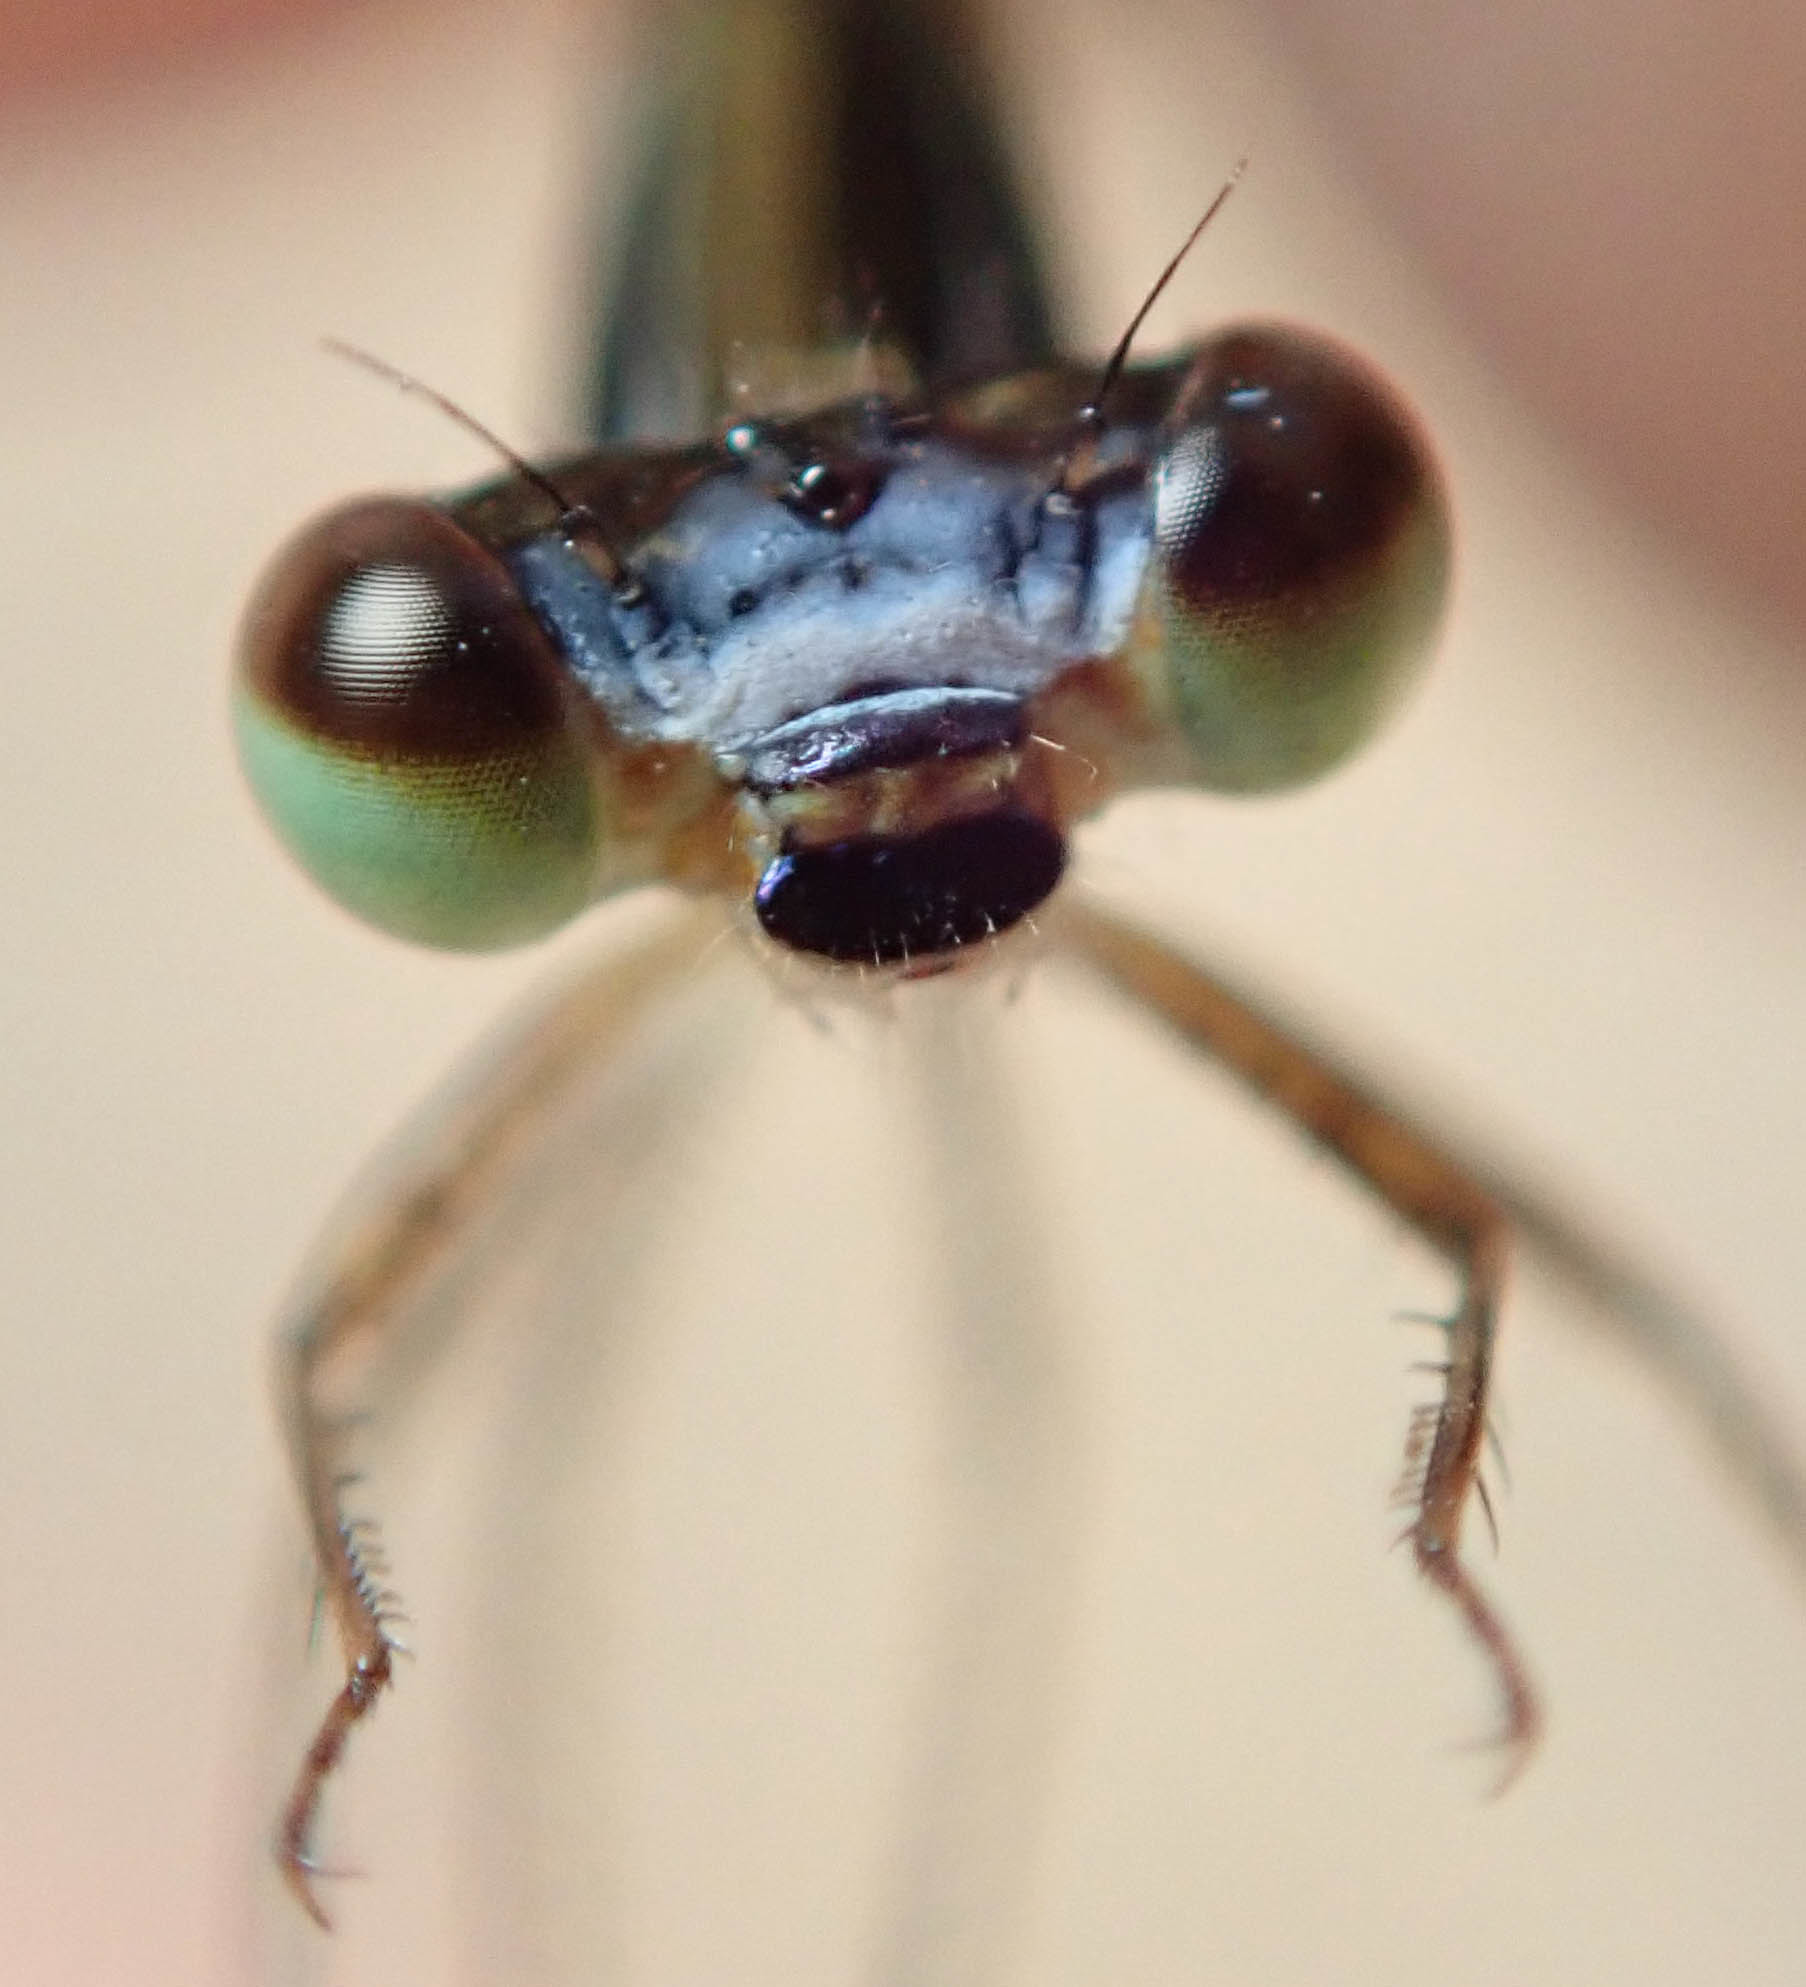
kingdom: Animalia
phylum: Arthropoda
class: Insecta
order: Odonata
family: Coenagrionidae
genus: Agriocnemis
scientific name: Agriocnemis ruberrima
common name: Orange wisp
